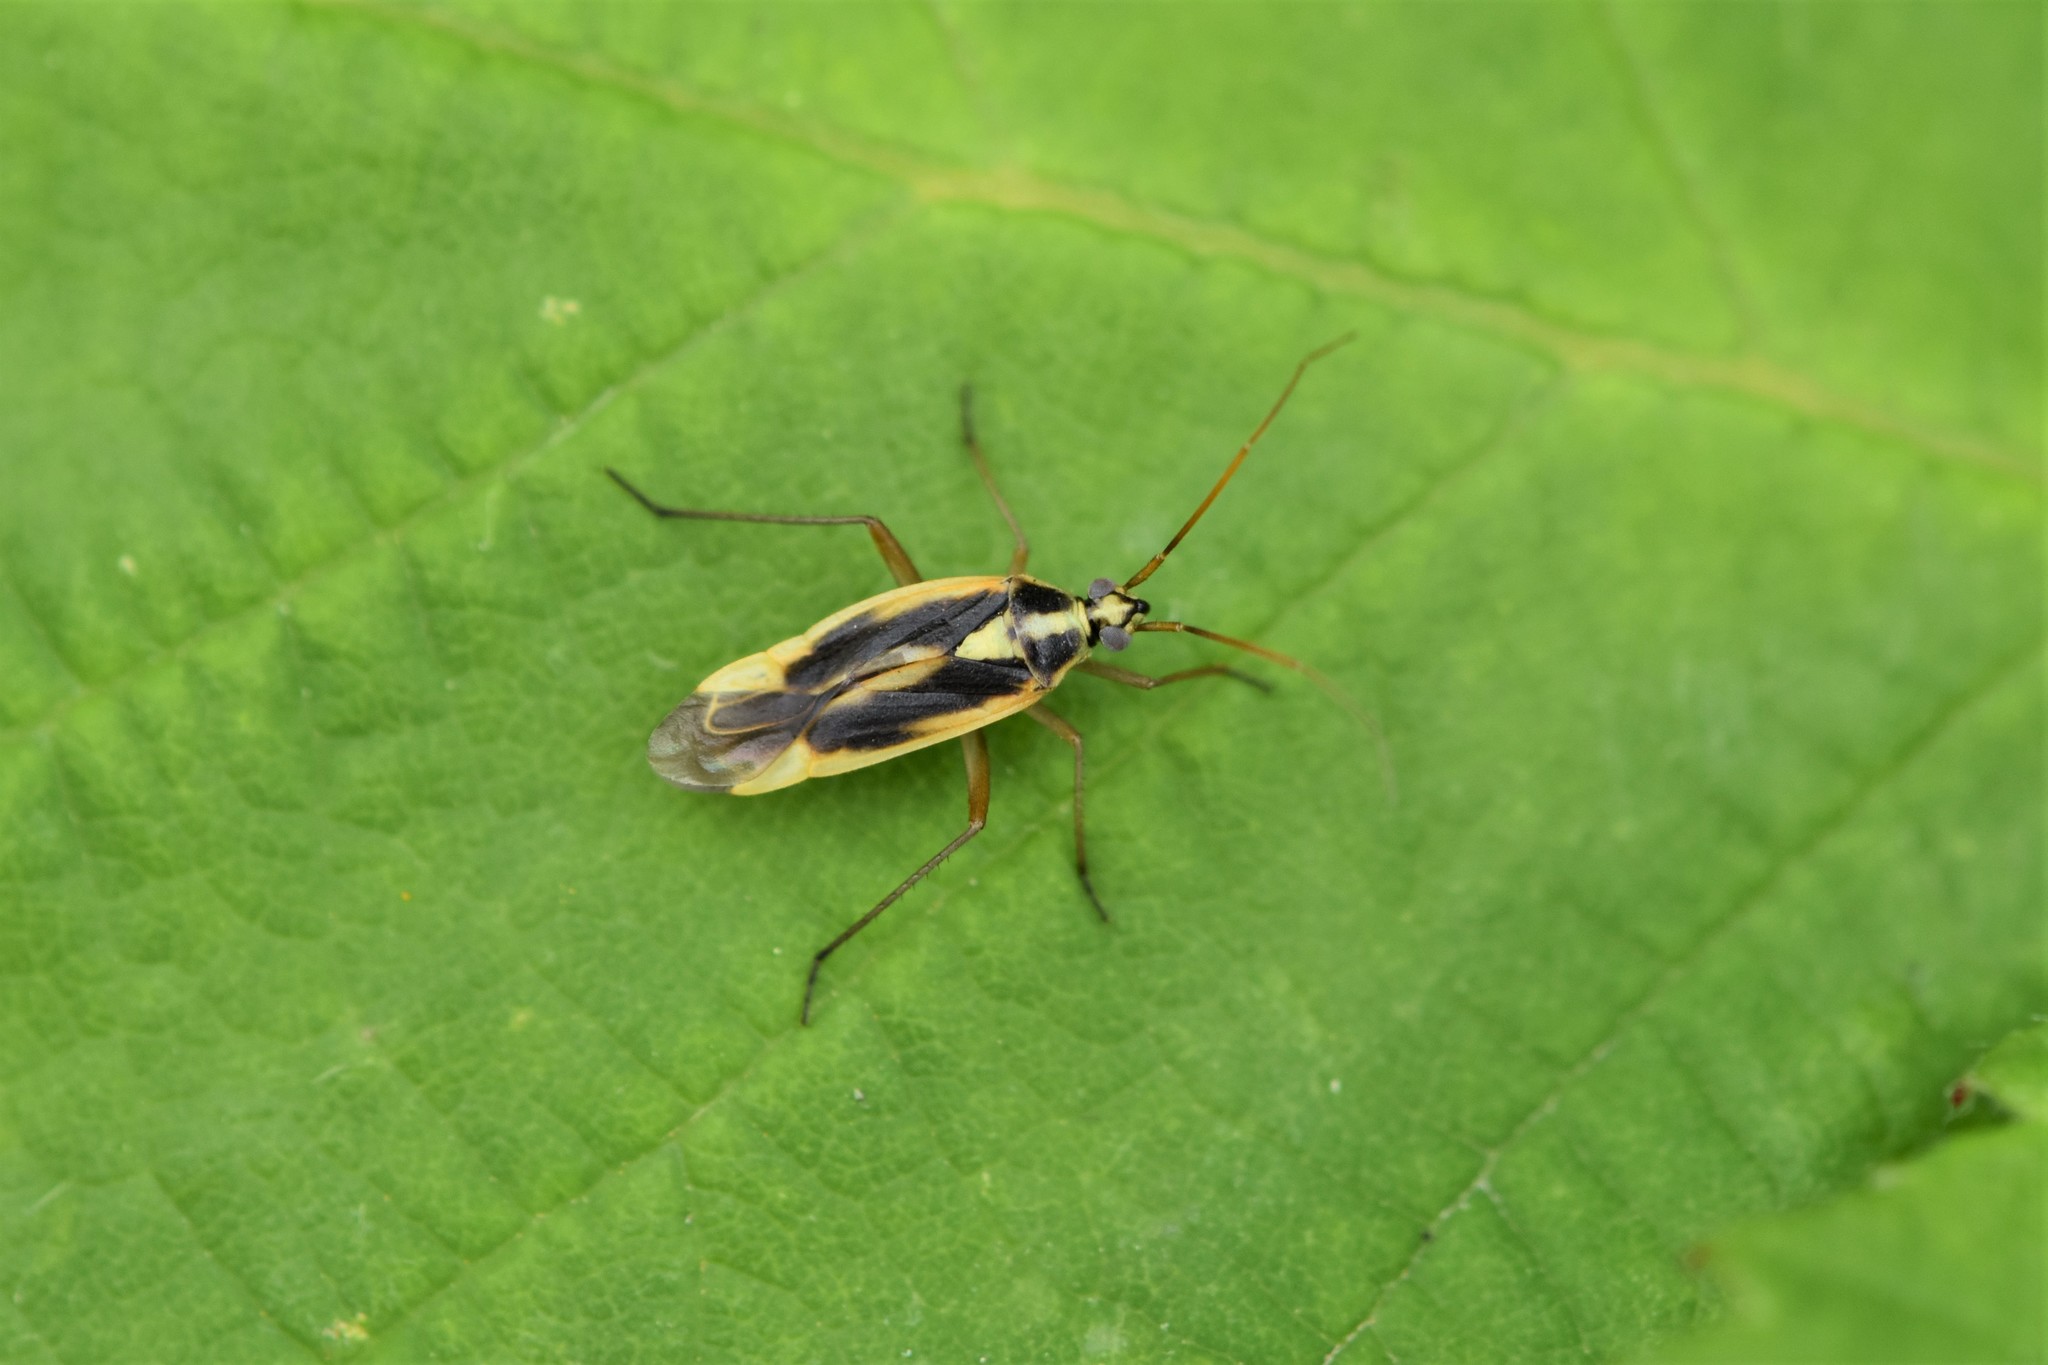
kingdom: Animalia
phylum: Arthropoda
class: Insecta
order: Hemiptera
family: Miridae
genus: Stenotus
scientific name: Stenotus binotatus
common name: Plant bug
